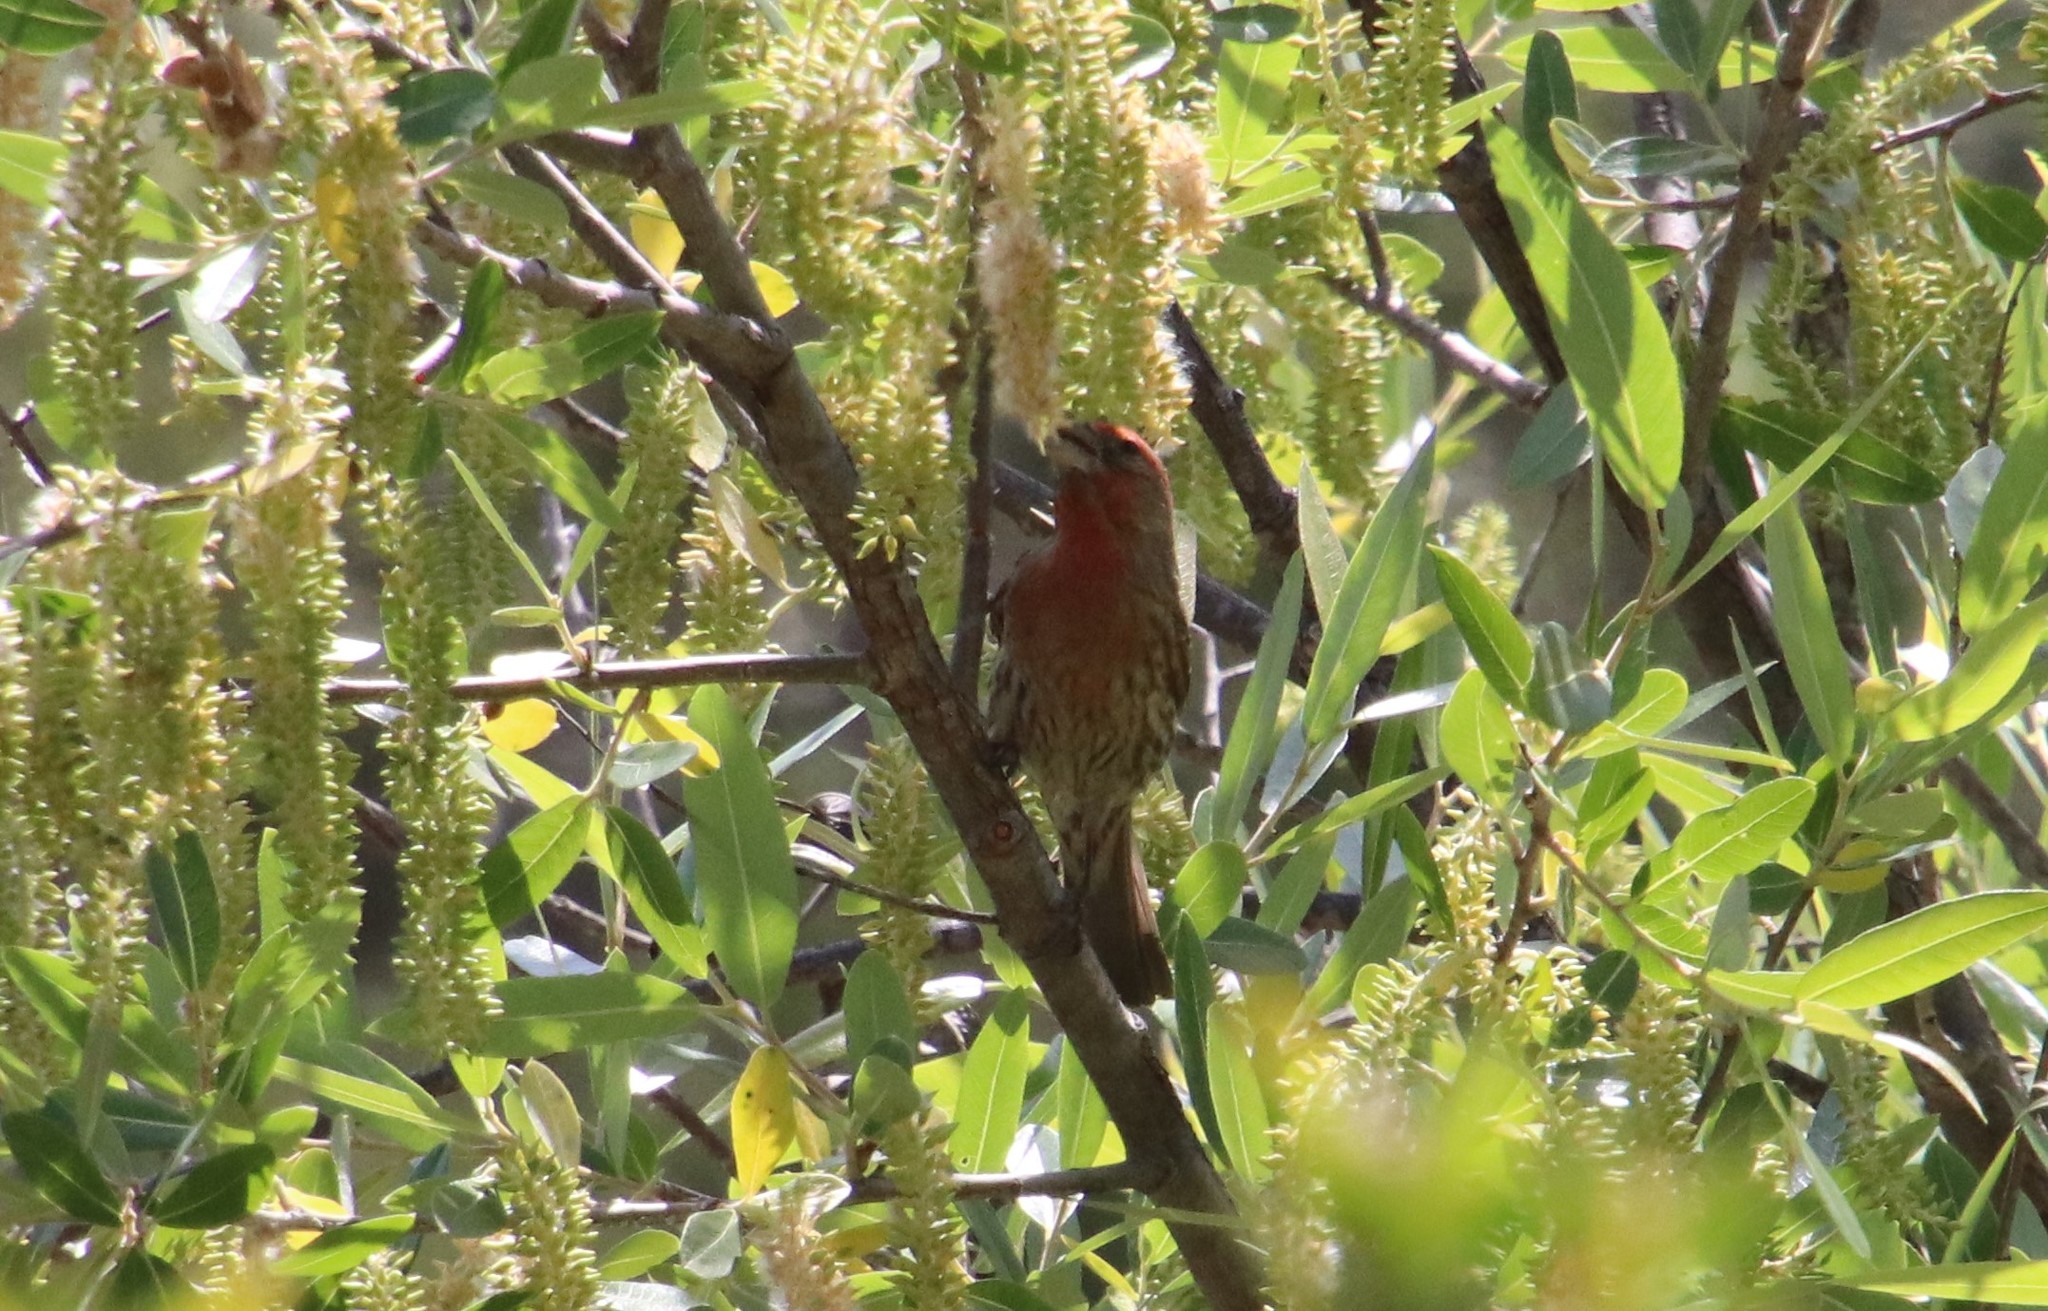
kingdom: Animalia
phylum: Chordata
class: Aves
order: Passeriformes
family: Fringillidae
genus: Haemorhous
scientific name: Haemorhous mexicanus
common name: House finch
